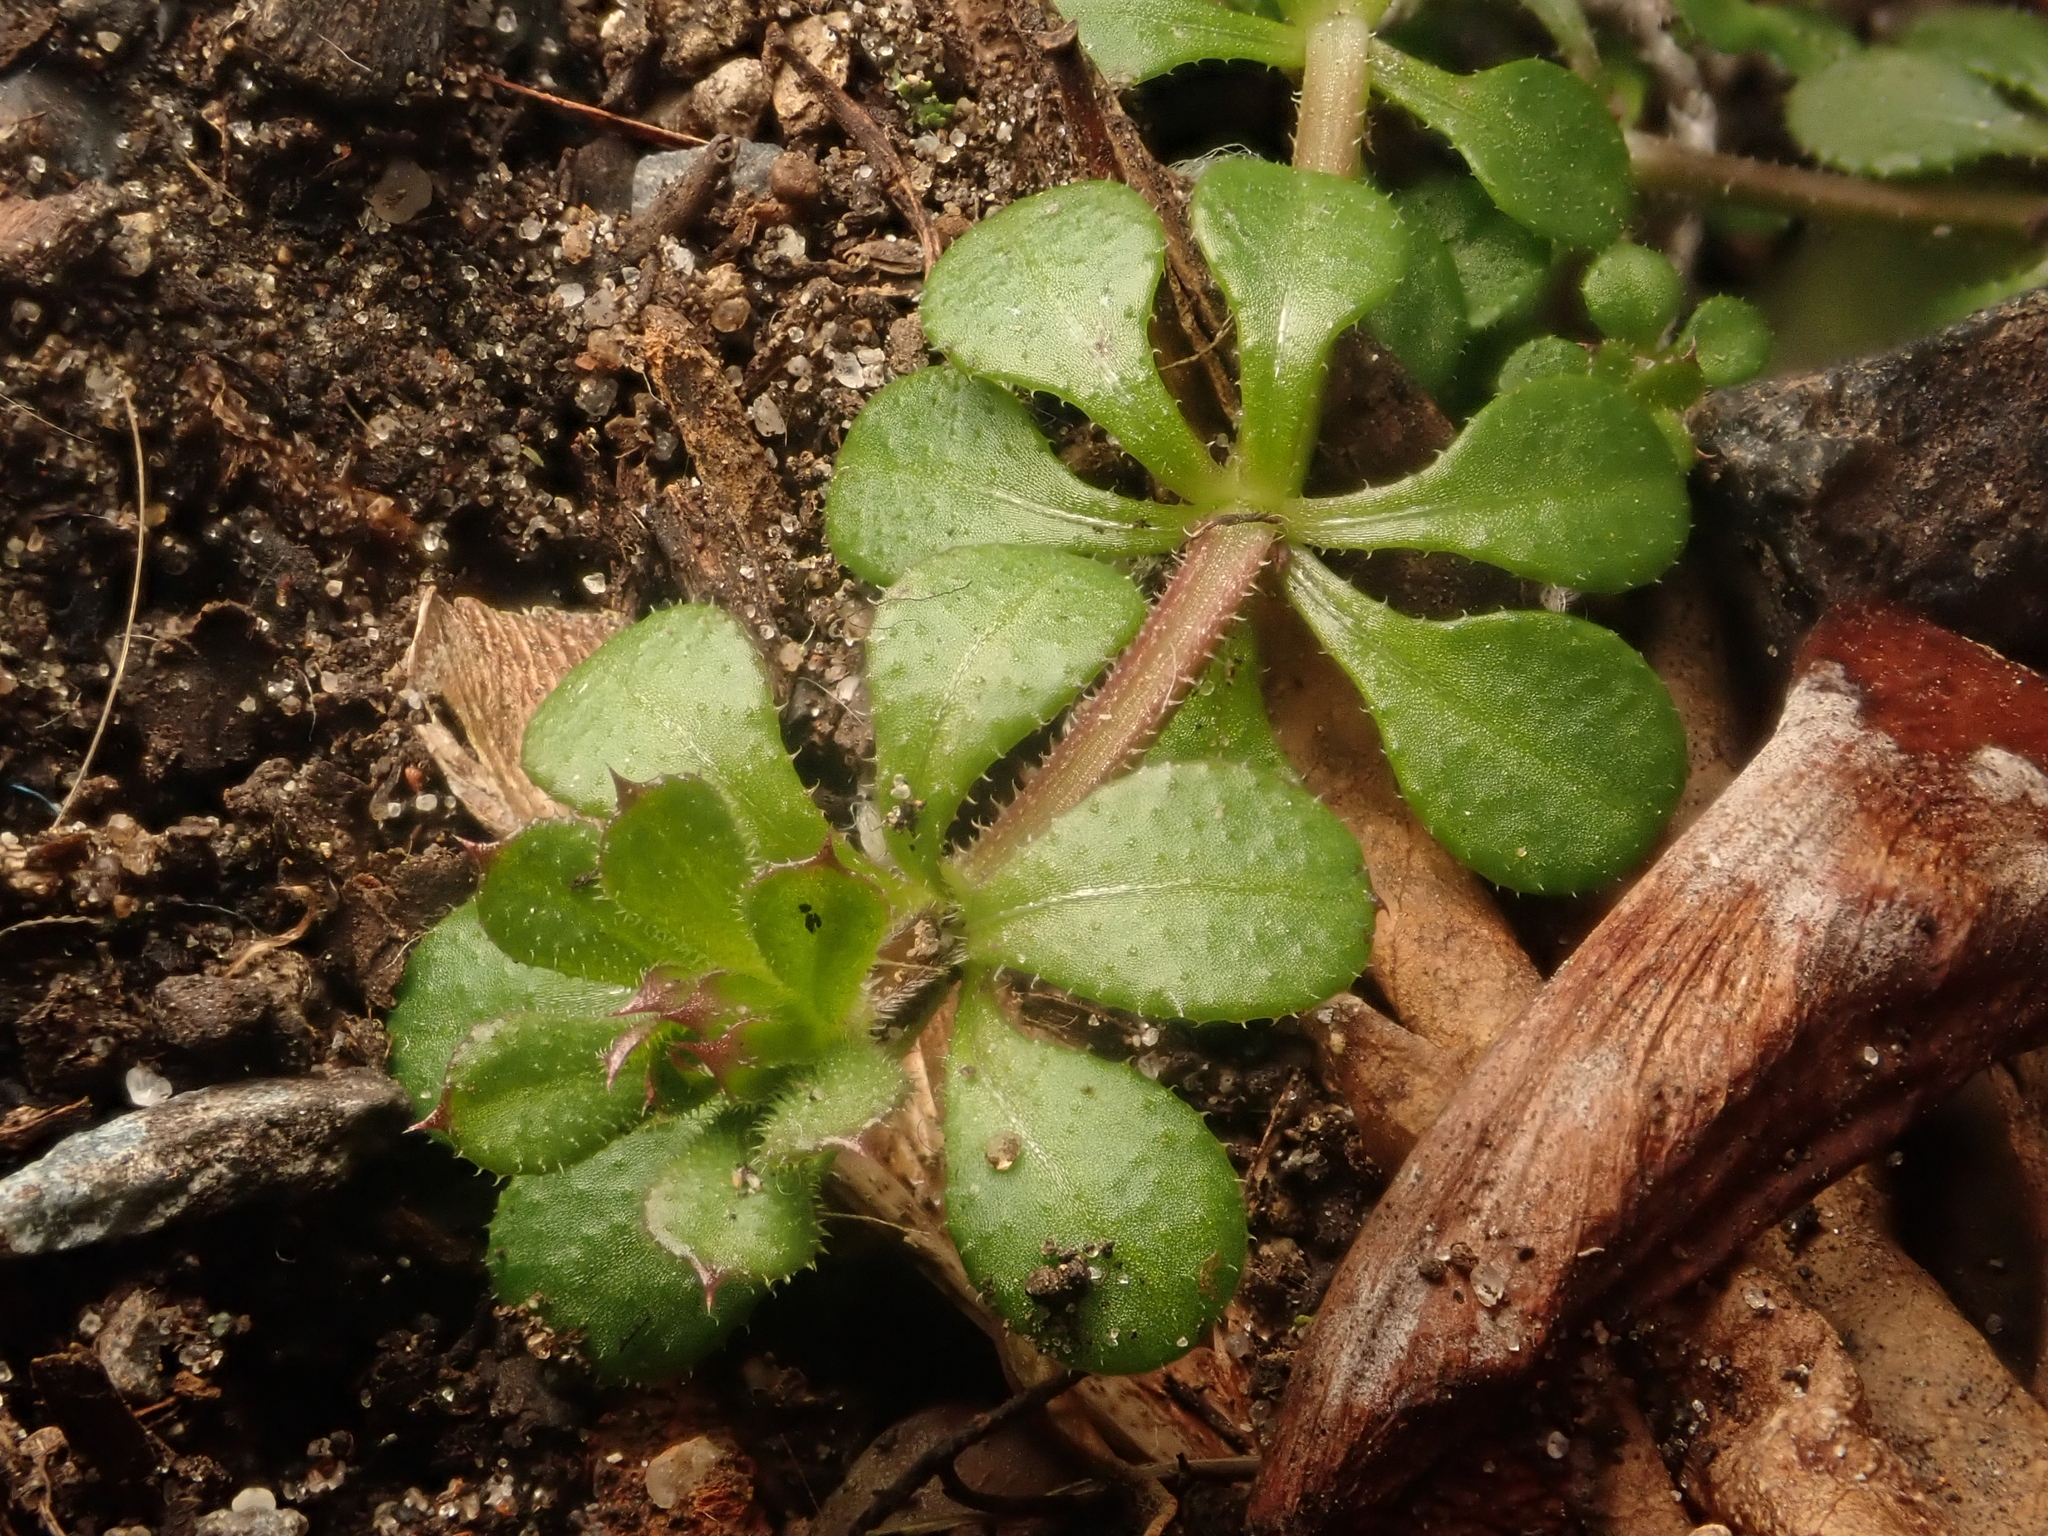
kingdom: Plantae
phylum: Tracheophyta
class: Magnoliopsida
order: Gentianales
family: Rubiaceae
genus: Galium
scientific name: Galium aparine
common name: Cleavers
